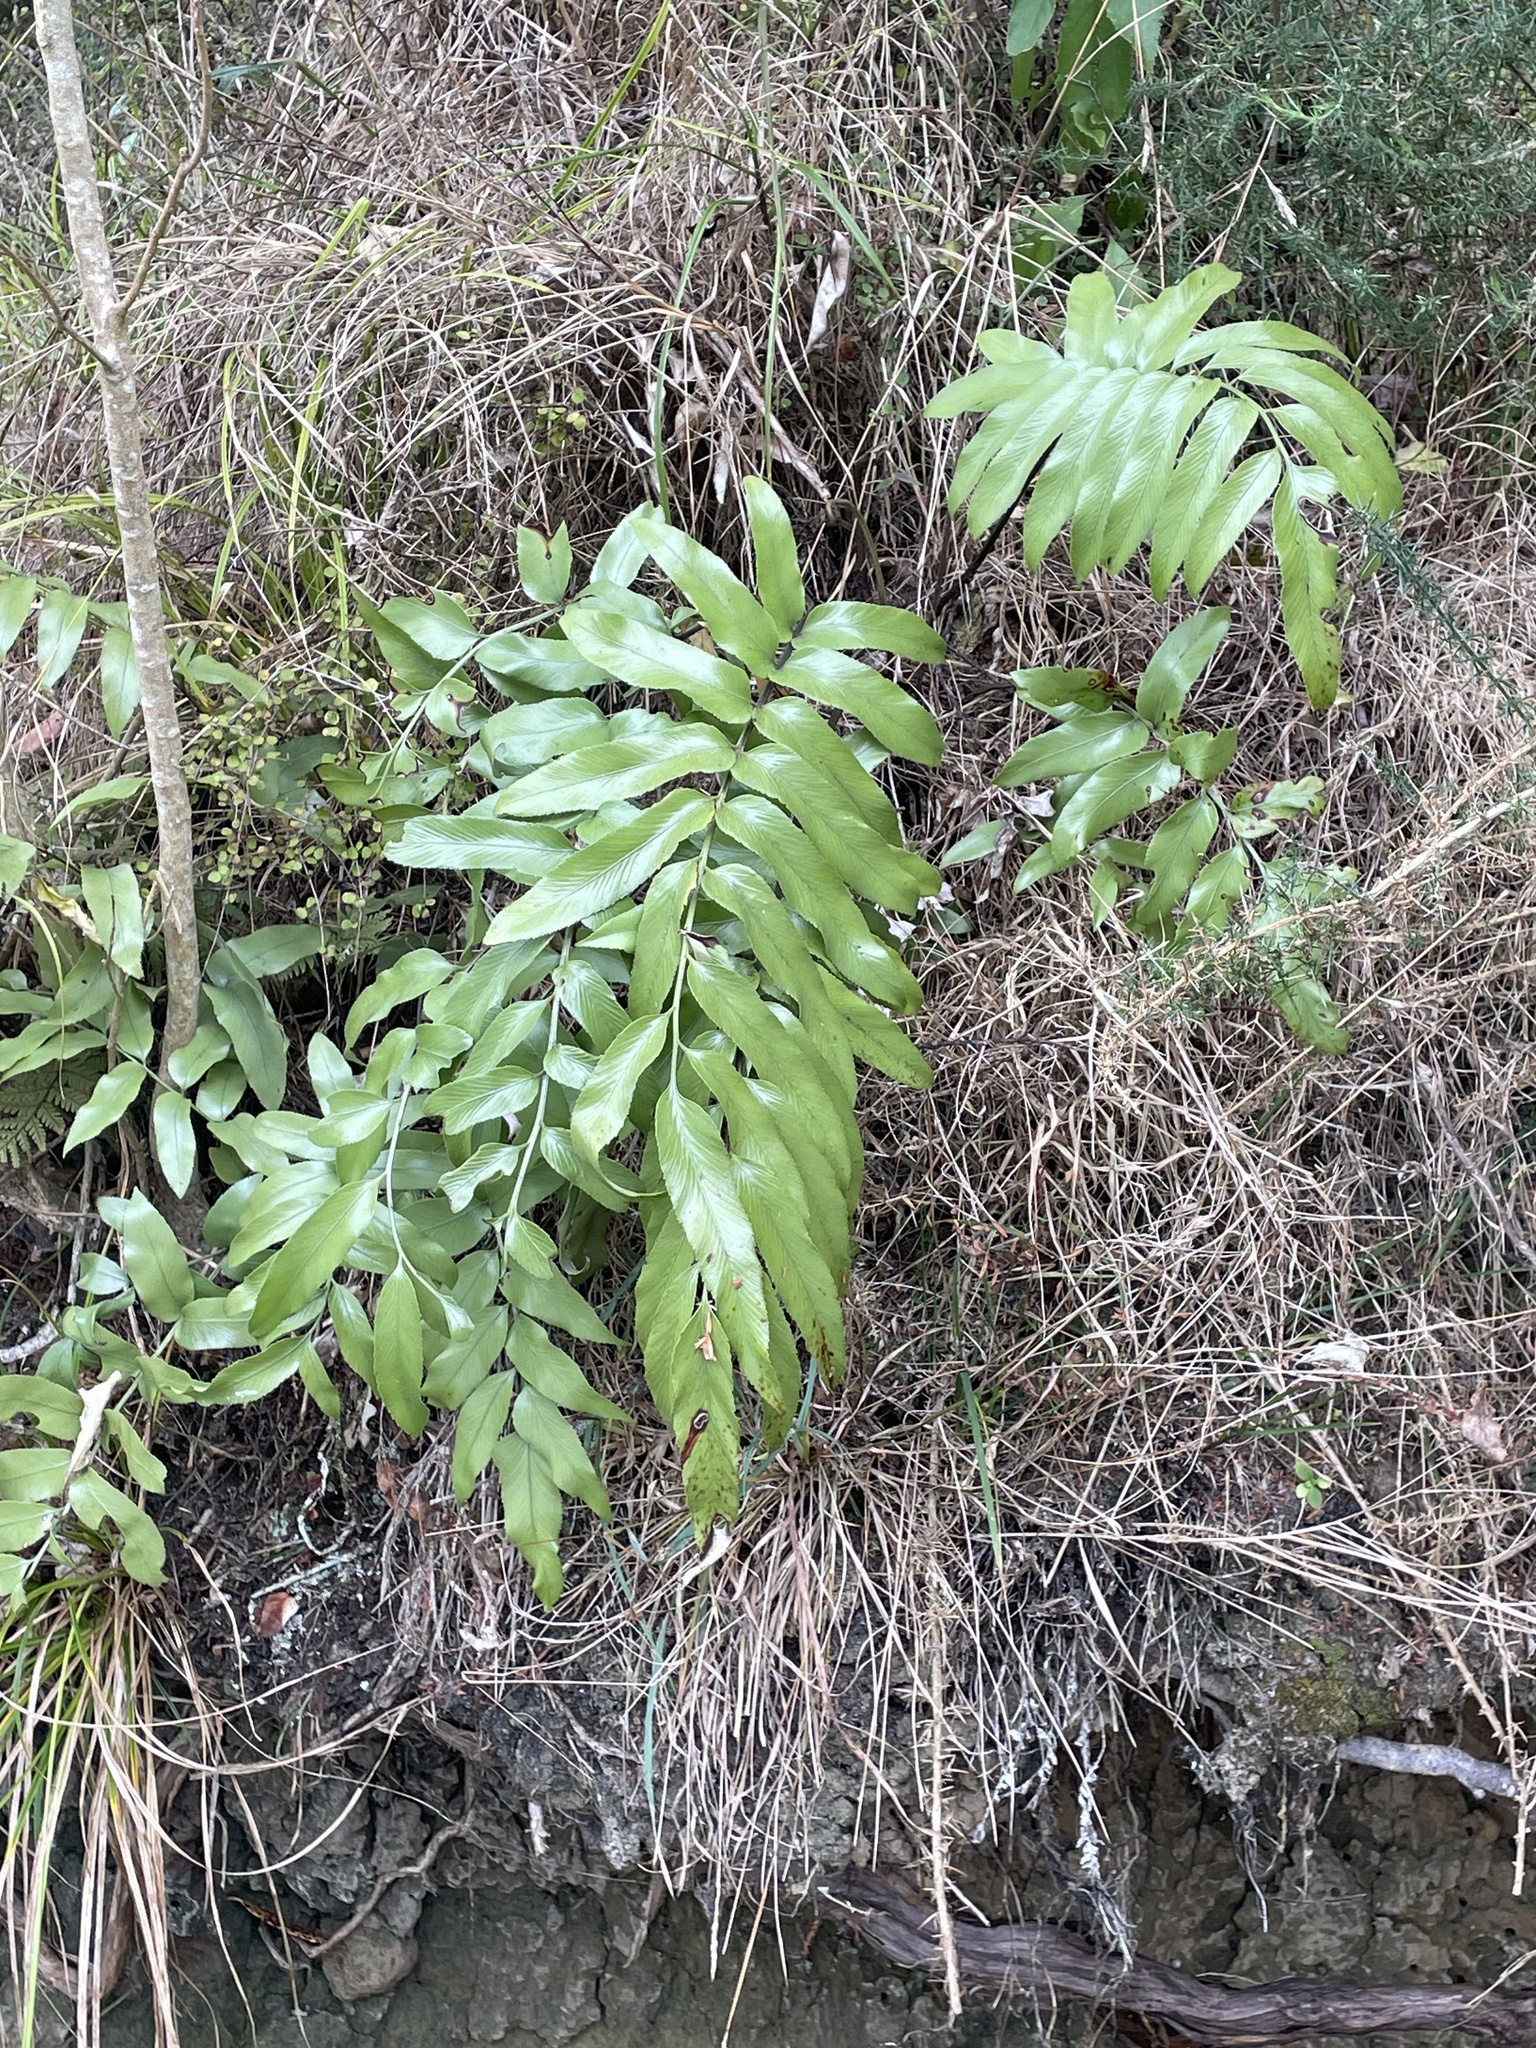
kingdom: Plantae
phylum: Tracheophyta
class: Polypodiopsida
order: Polypodiales
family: Aspleniaceae
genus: Asplenium
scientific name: Asplenium oblongifolium
